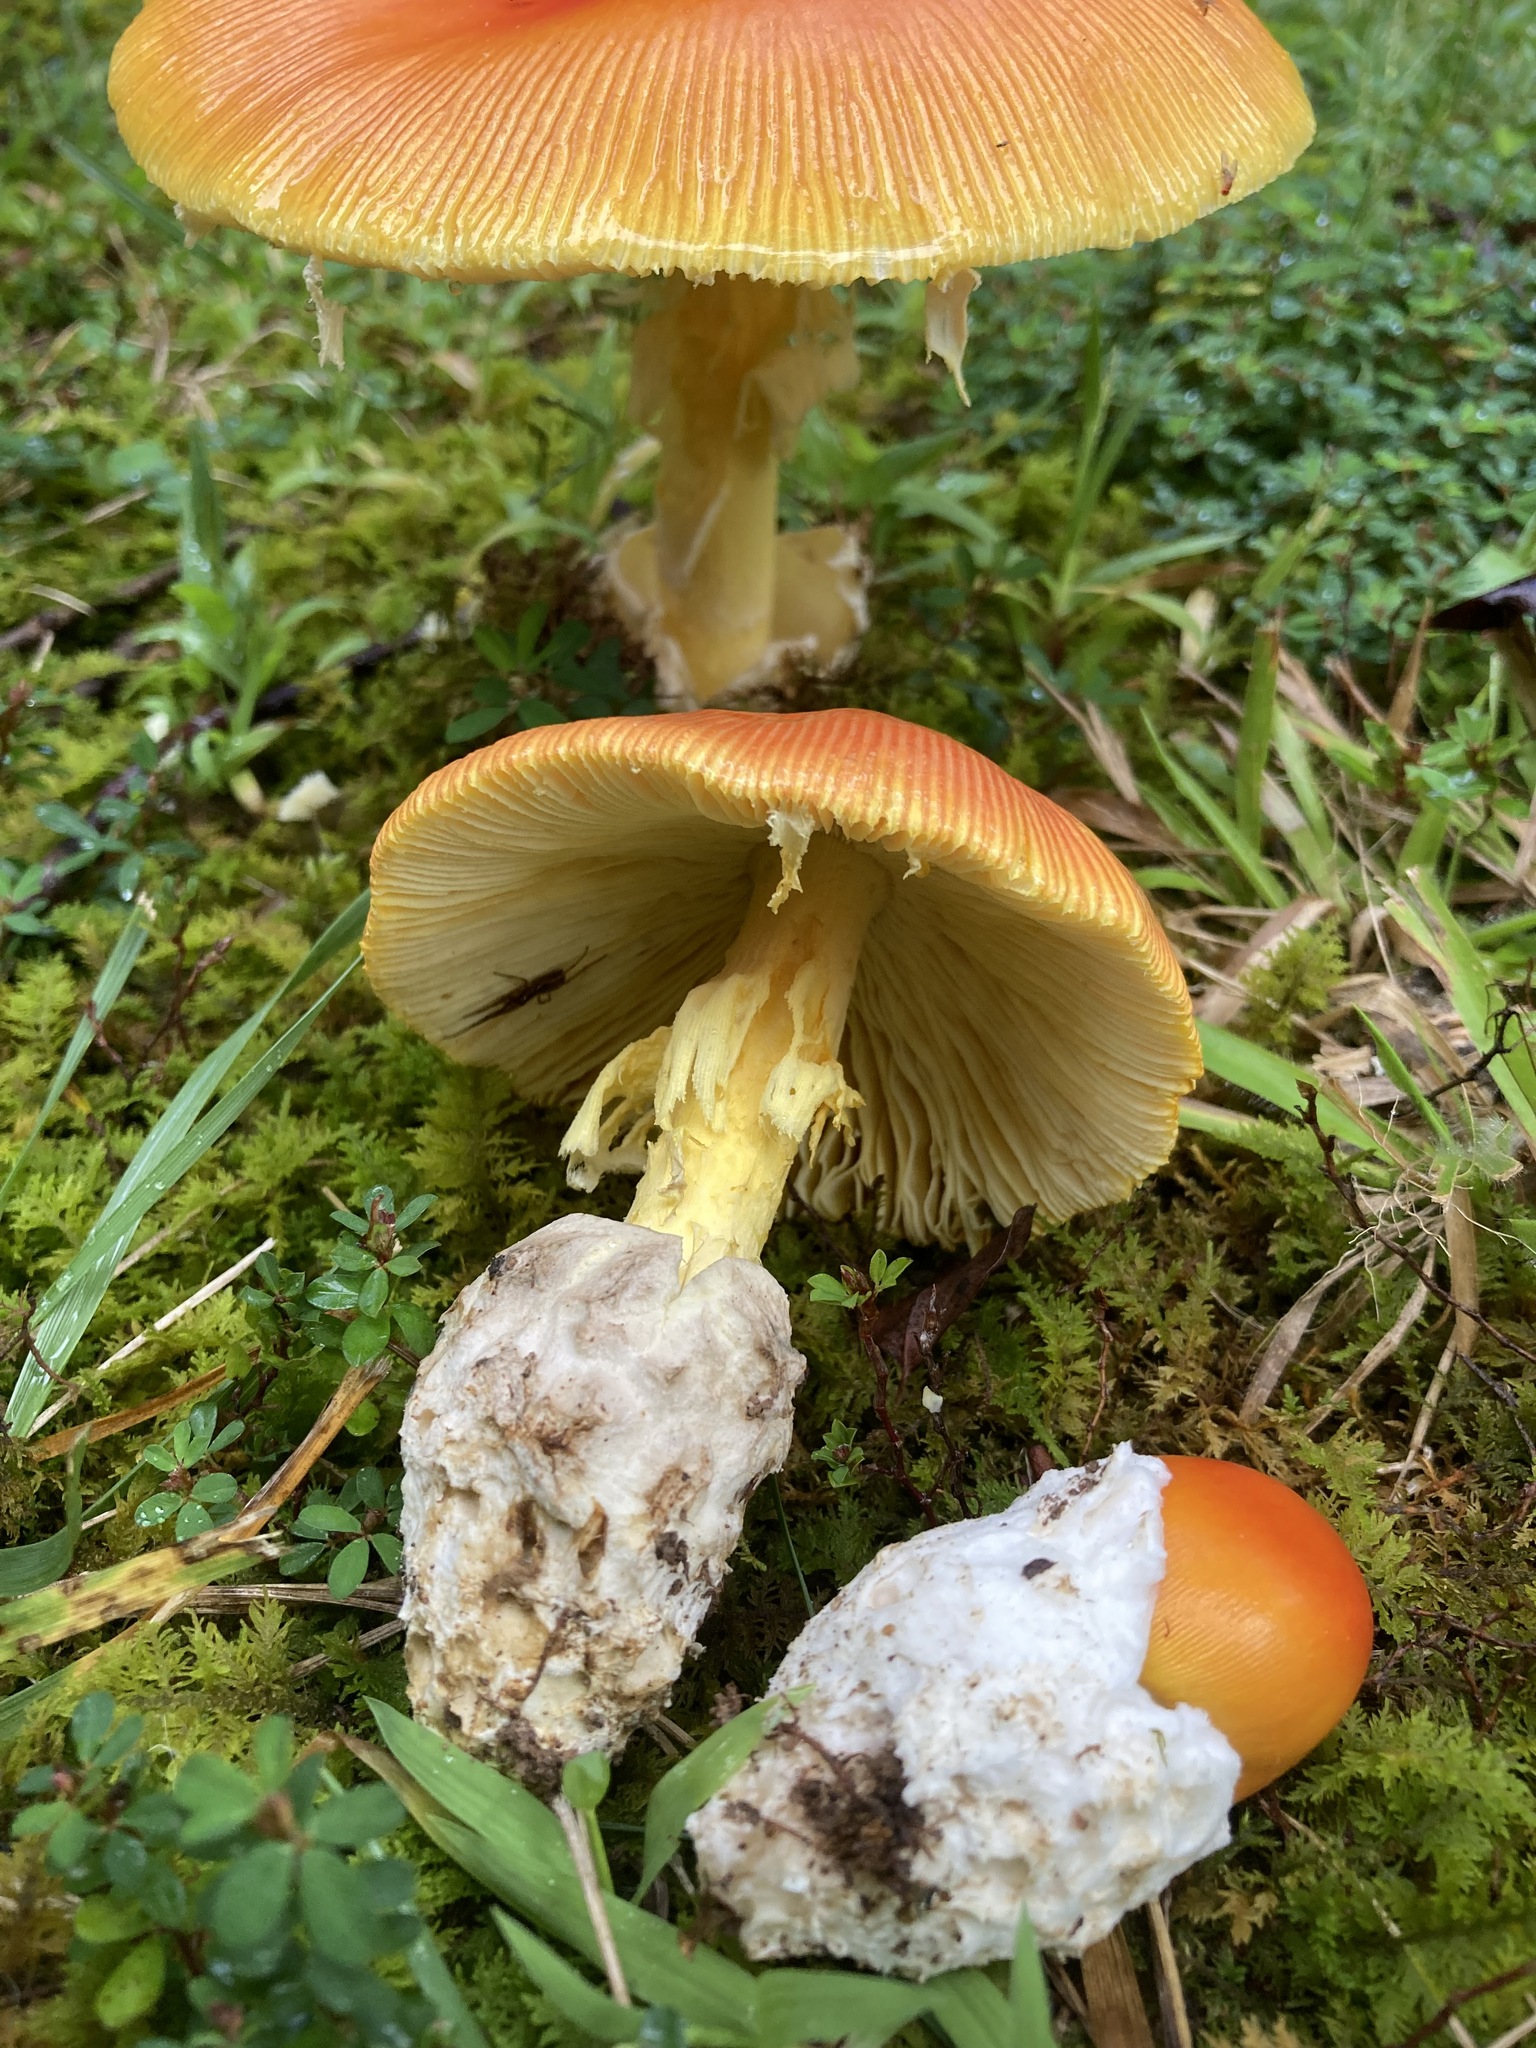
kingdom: Fungi
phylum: Basidiomycota
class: Agaricomycetes
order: Agaricales
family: Amanitaceae
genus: Amanita
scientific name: Amanita jacksonii
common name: Jackson's slender caesar
